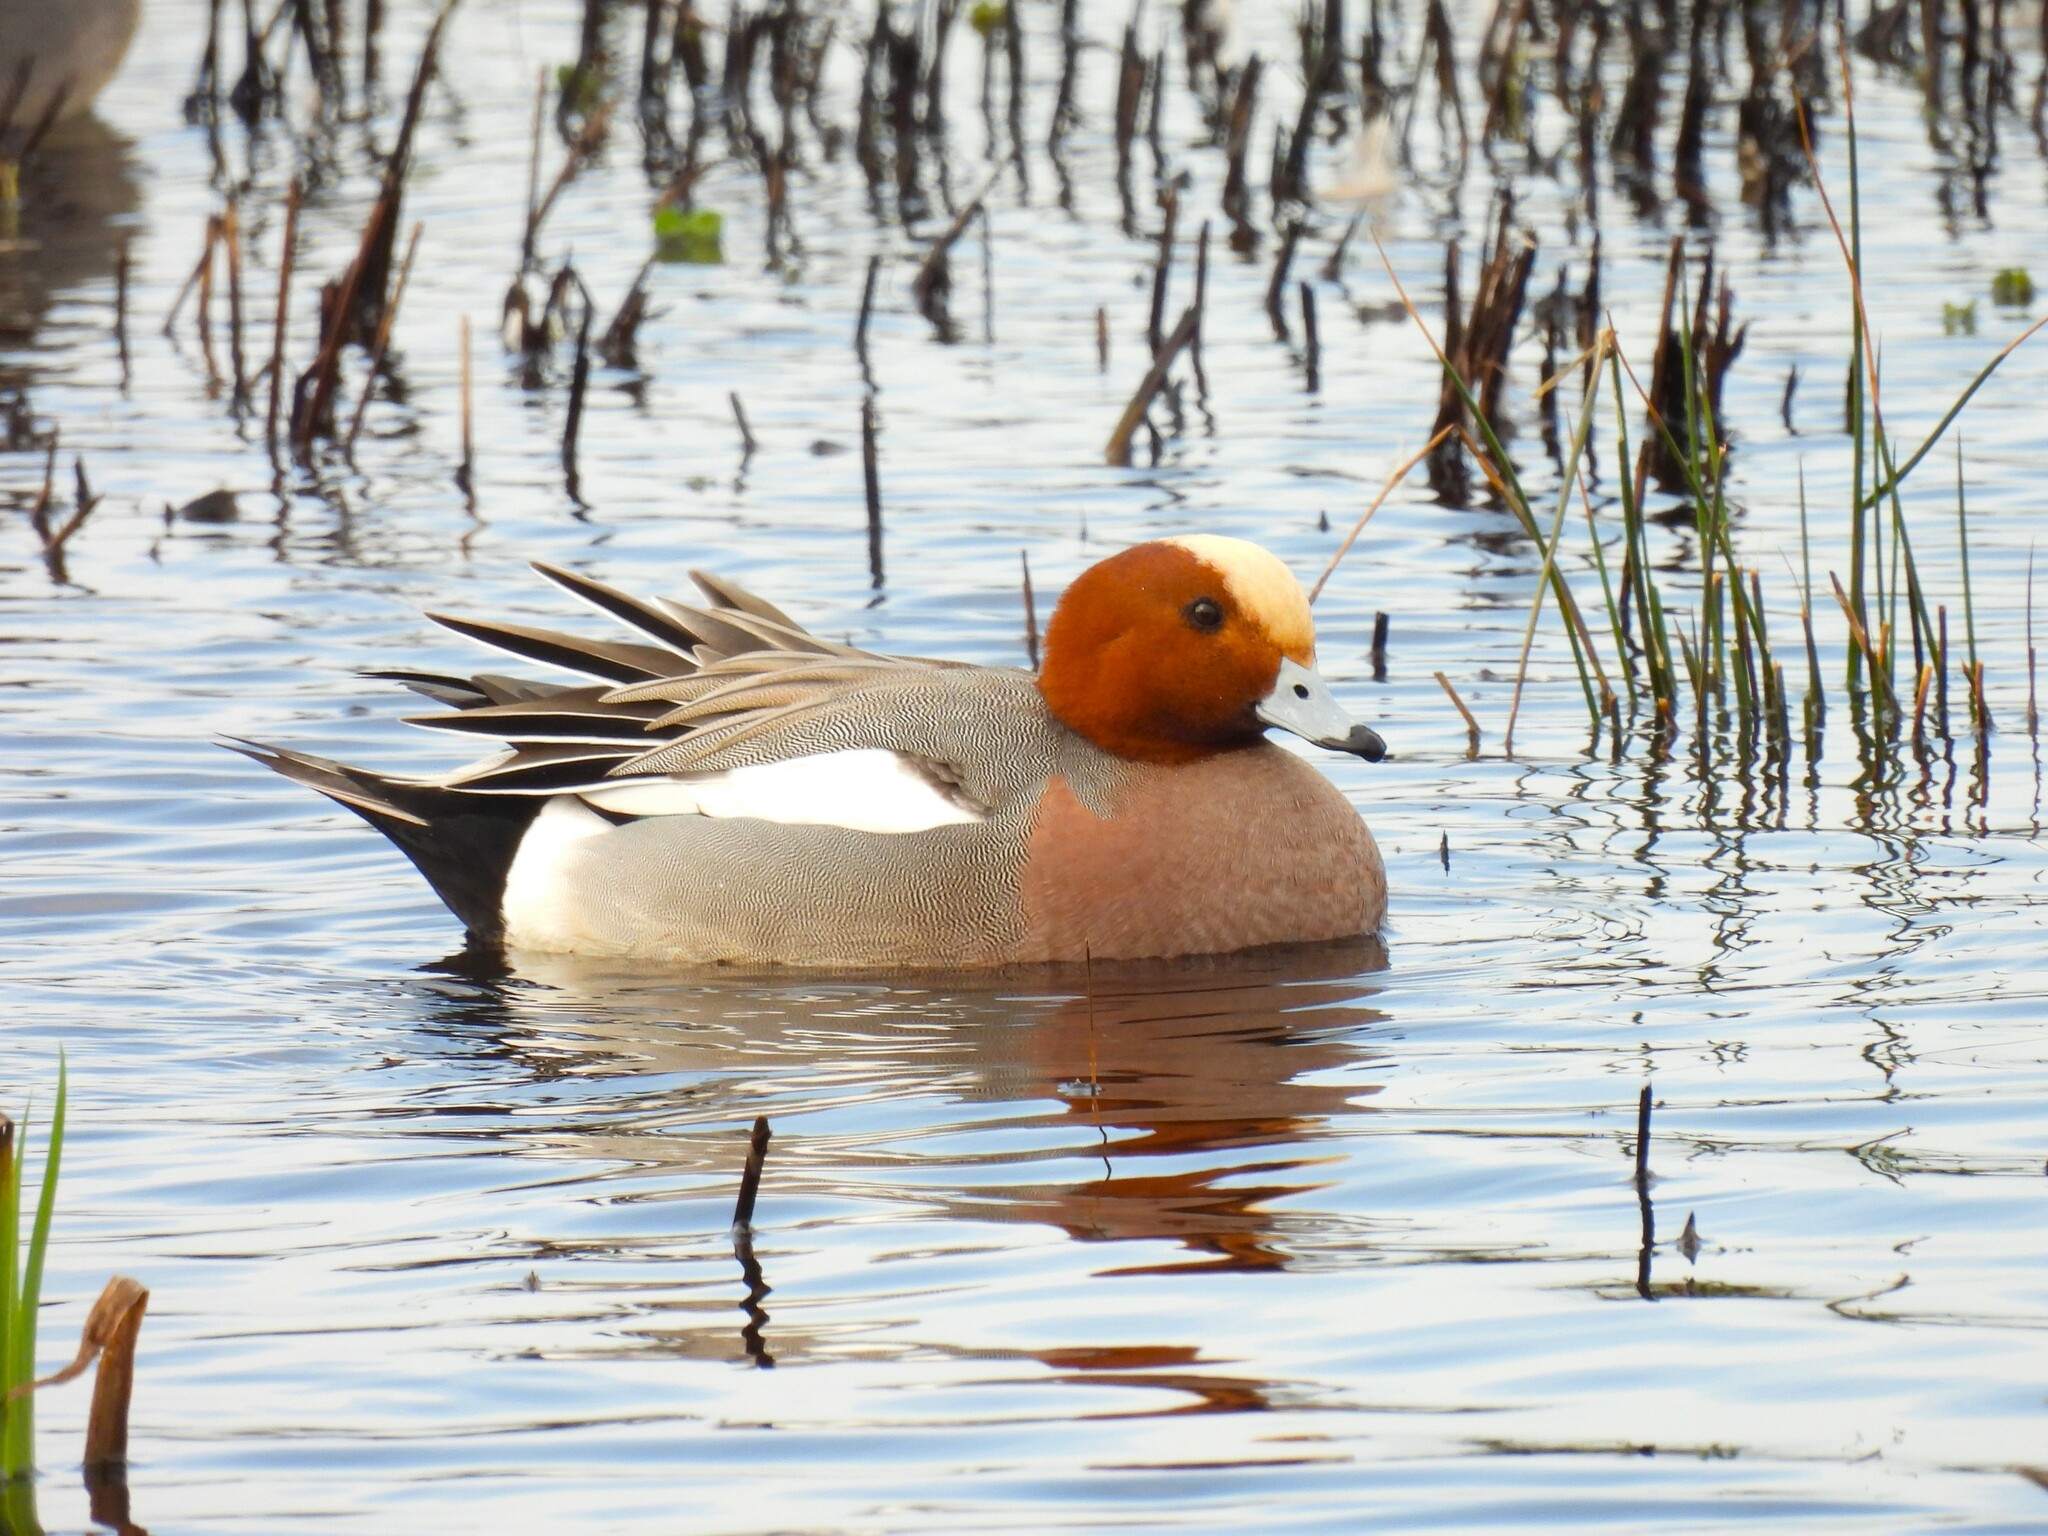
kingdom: Animalia
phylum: Chordata
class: Aves
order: Anseriformes
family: Anatidae
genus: Mareca
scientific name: Mareca penelope
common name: Eurasian wigeon
